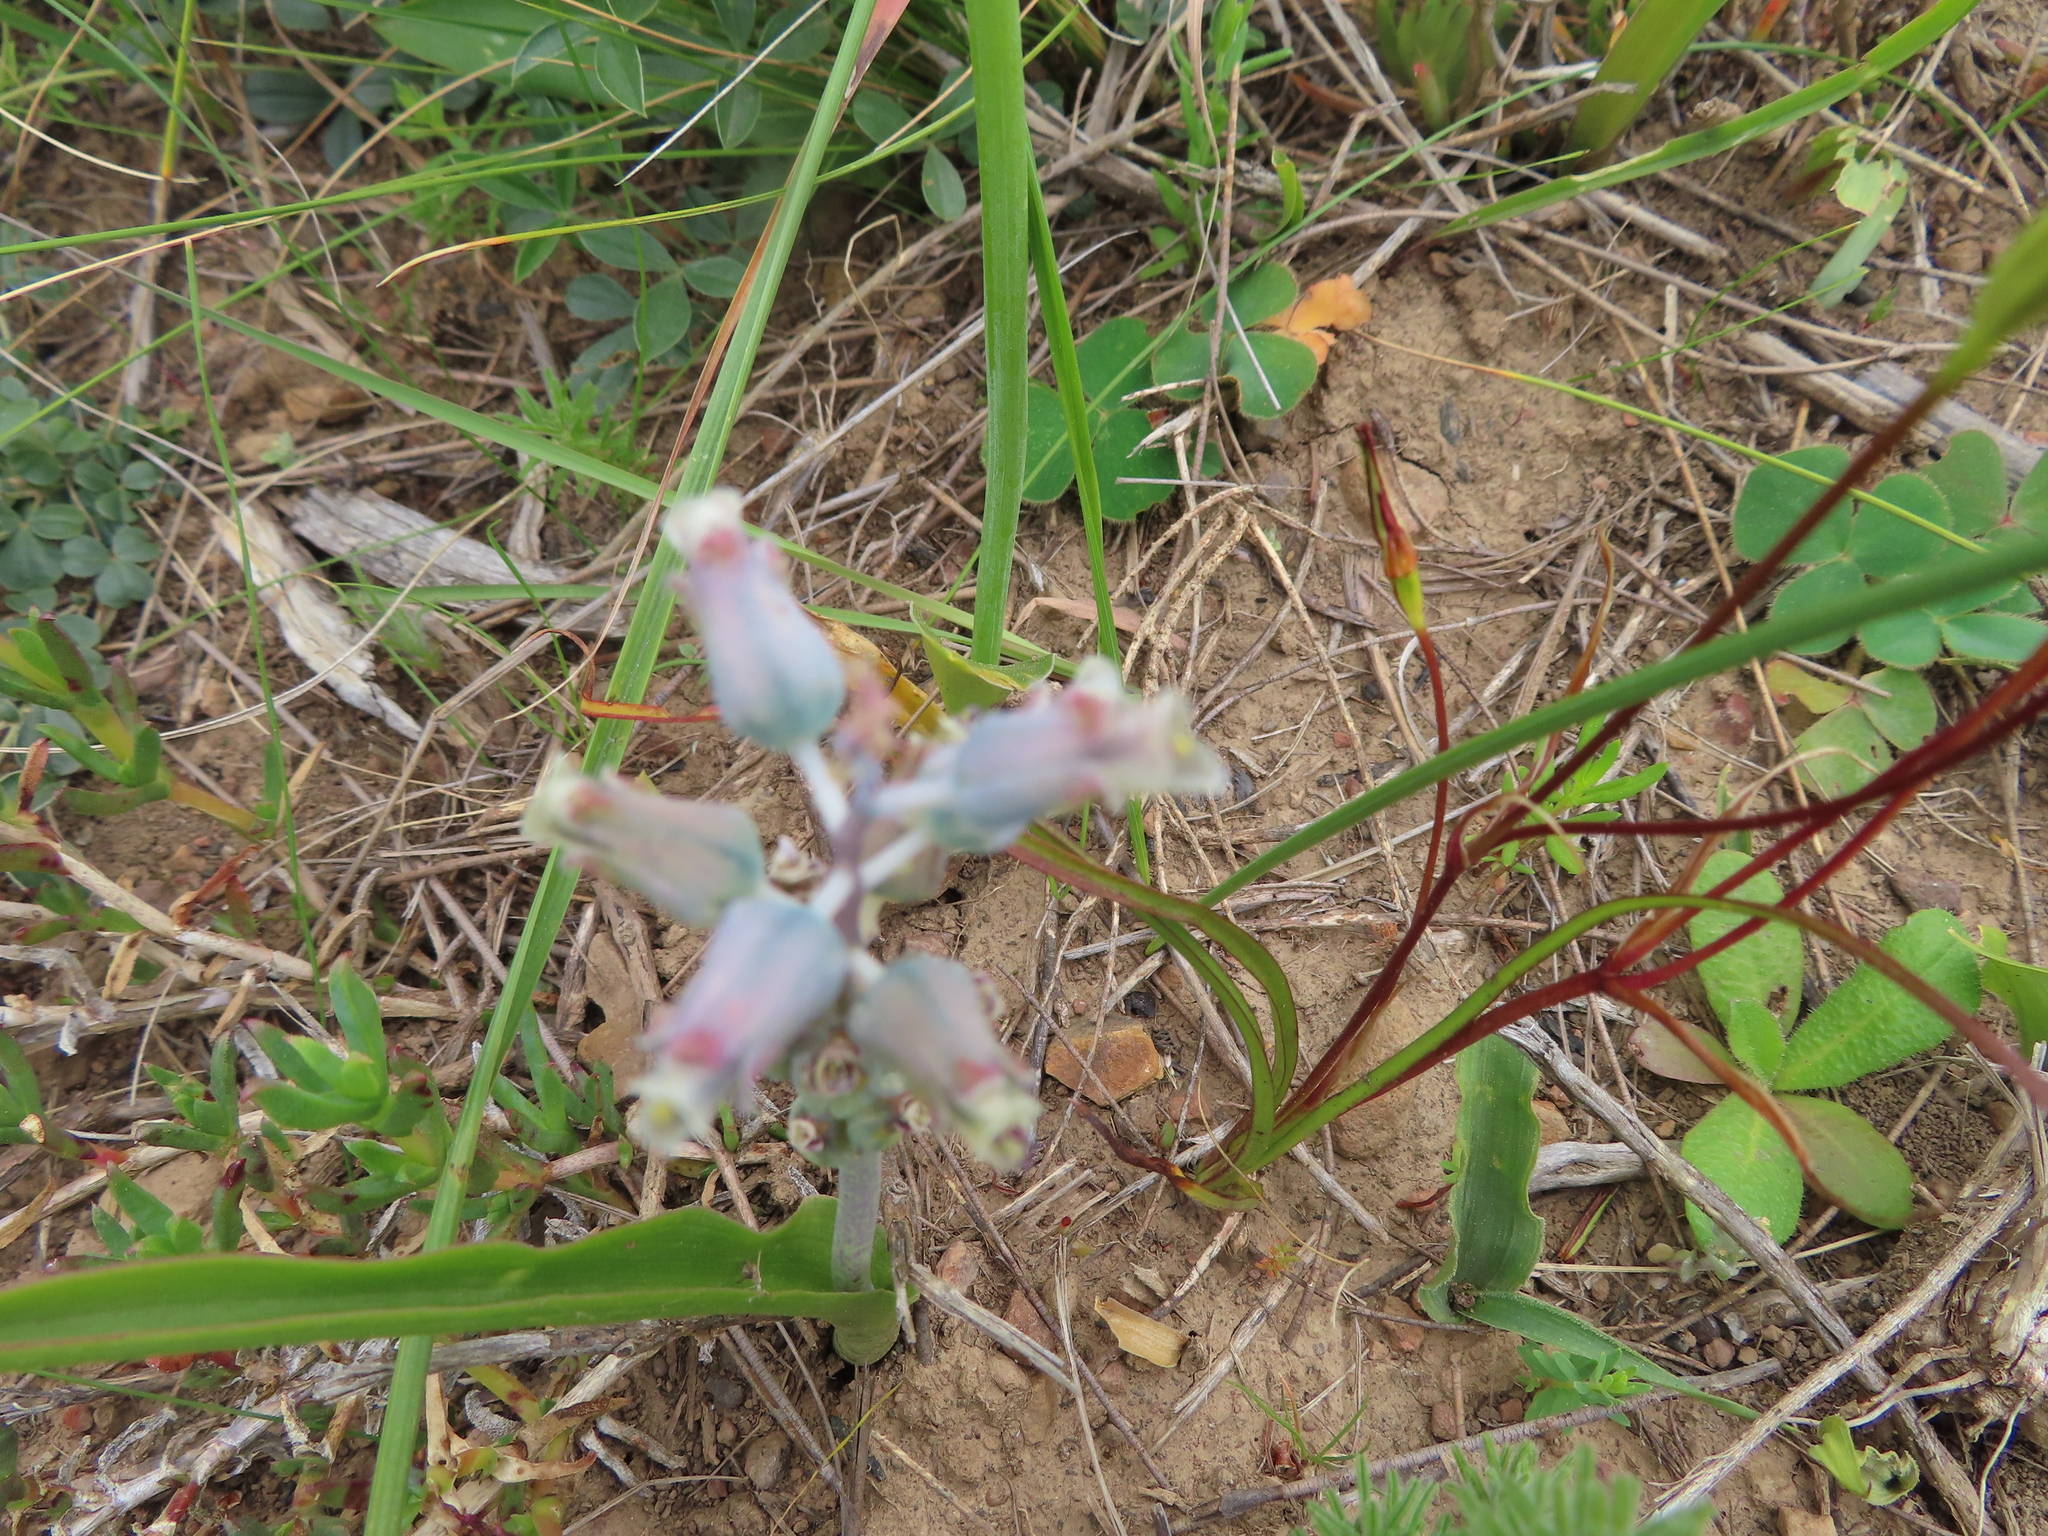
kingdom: Plantae
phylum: Tracheophyta
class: Liliopsida
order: Asparagales
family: Asparagaceae
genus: Lachenalia
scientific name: Lachenalia mediana
